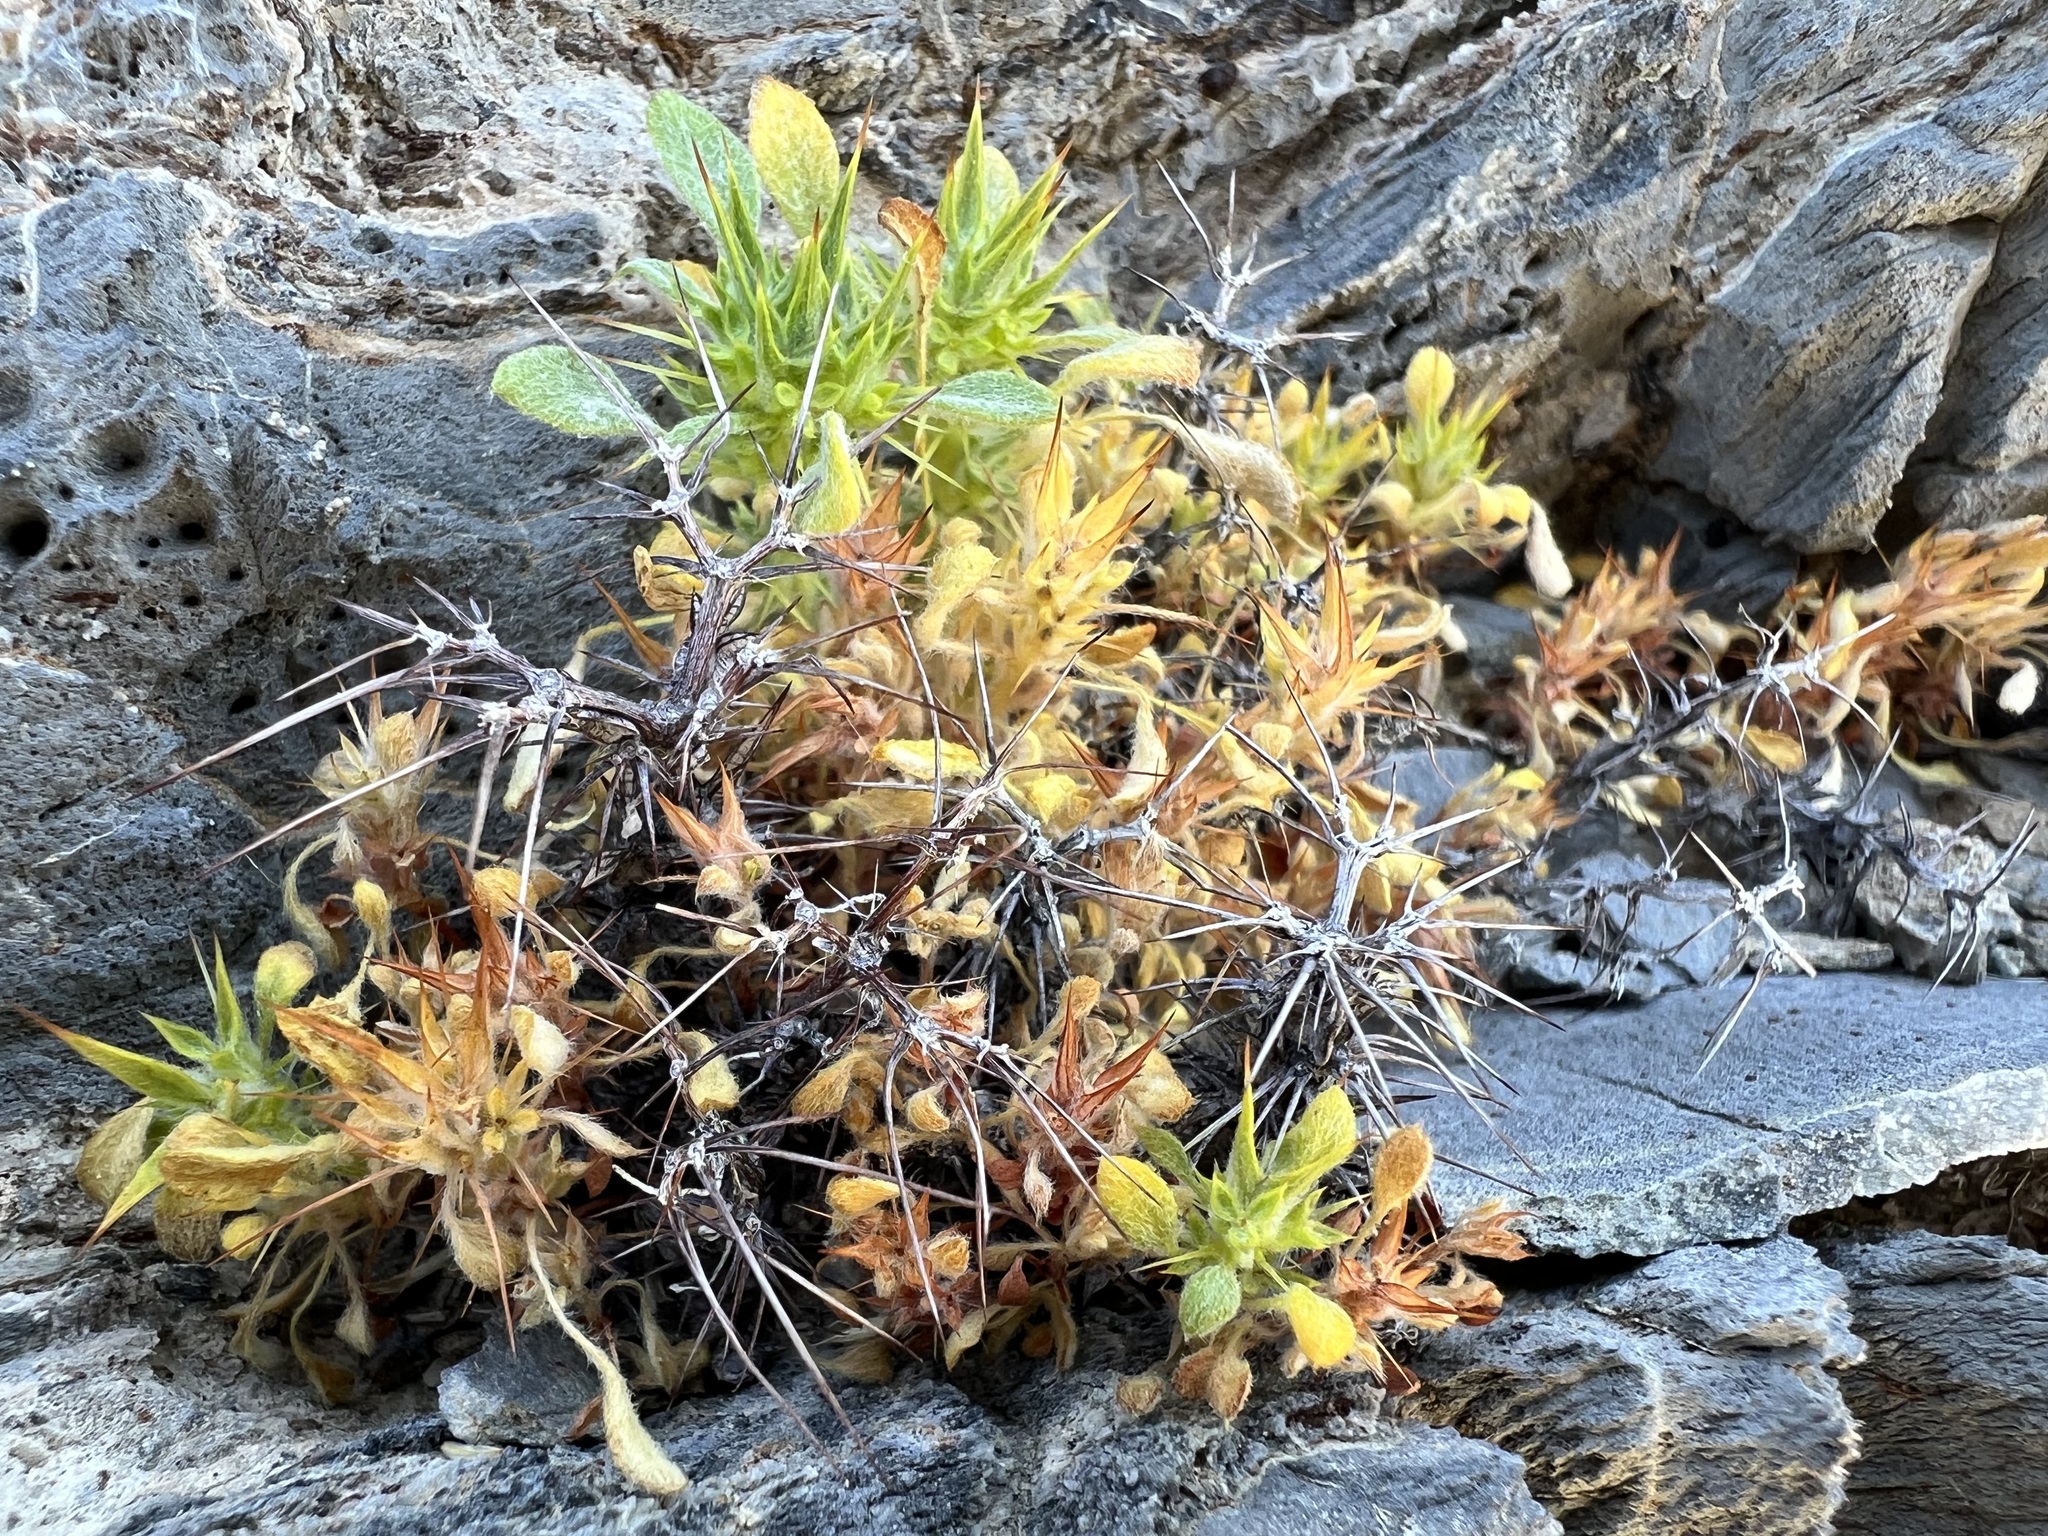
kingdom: Plantae
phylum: Tracheophyta
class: Magnoliopsida
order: Caryophyllales
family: Polygonaceae
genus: Chorizanthe
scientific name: Chorizanthe rigida
